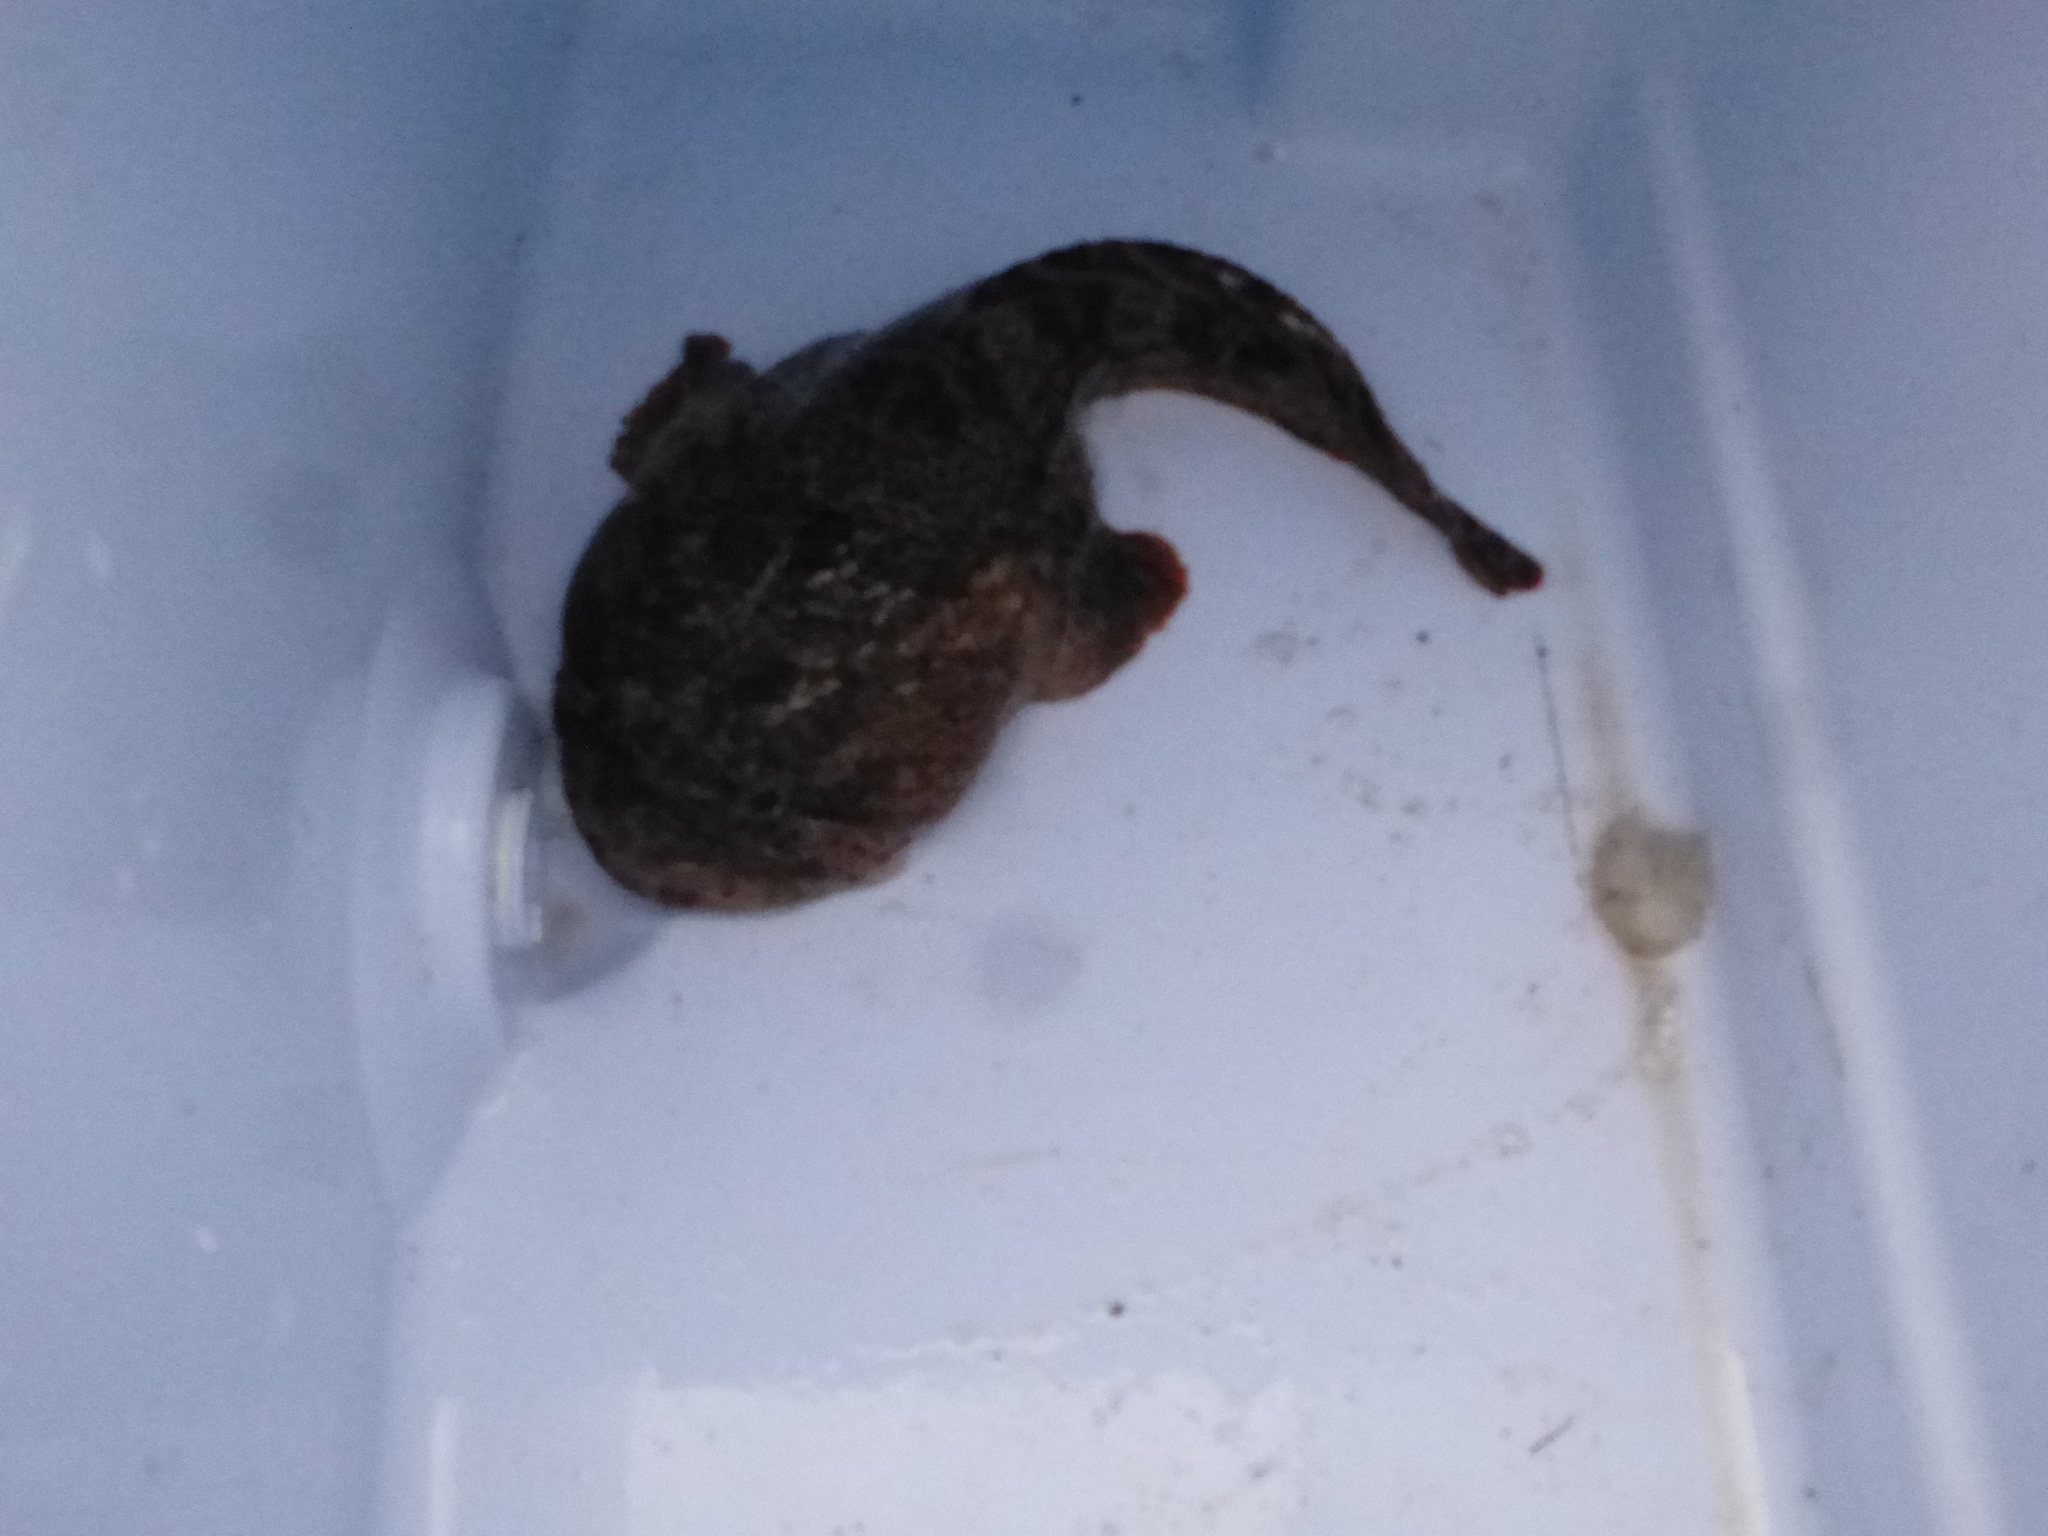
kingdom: Animalia
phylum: Chordata
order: Batrachoidiformes
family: Batrachoididae
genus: Opsanus
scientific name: Opsanus tau
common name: Oyster toadfish
